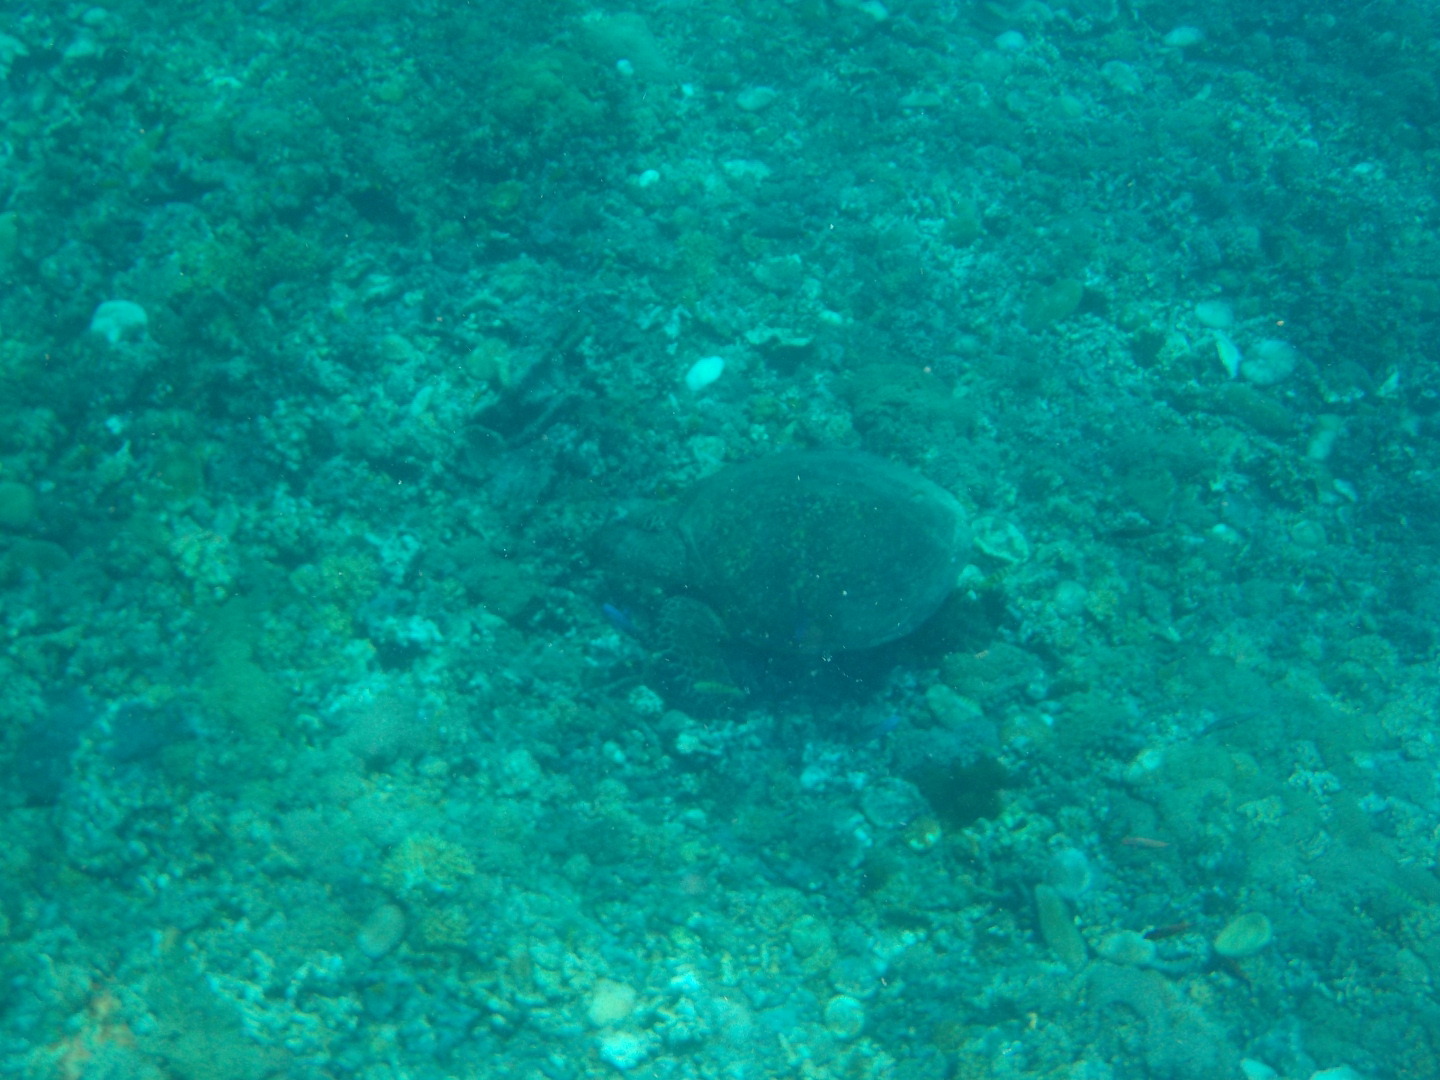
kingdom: Animalia
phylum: Chordata
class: Testudines
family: Cheloniidae
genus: Eretmochelys
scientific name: Eretmochelys imbricata
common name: Hawksbill turtle
